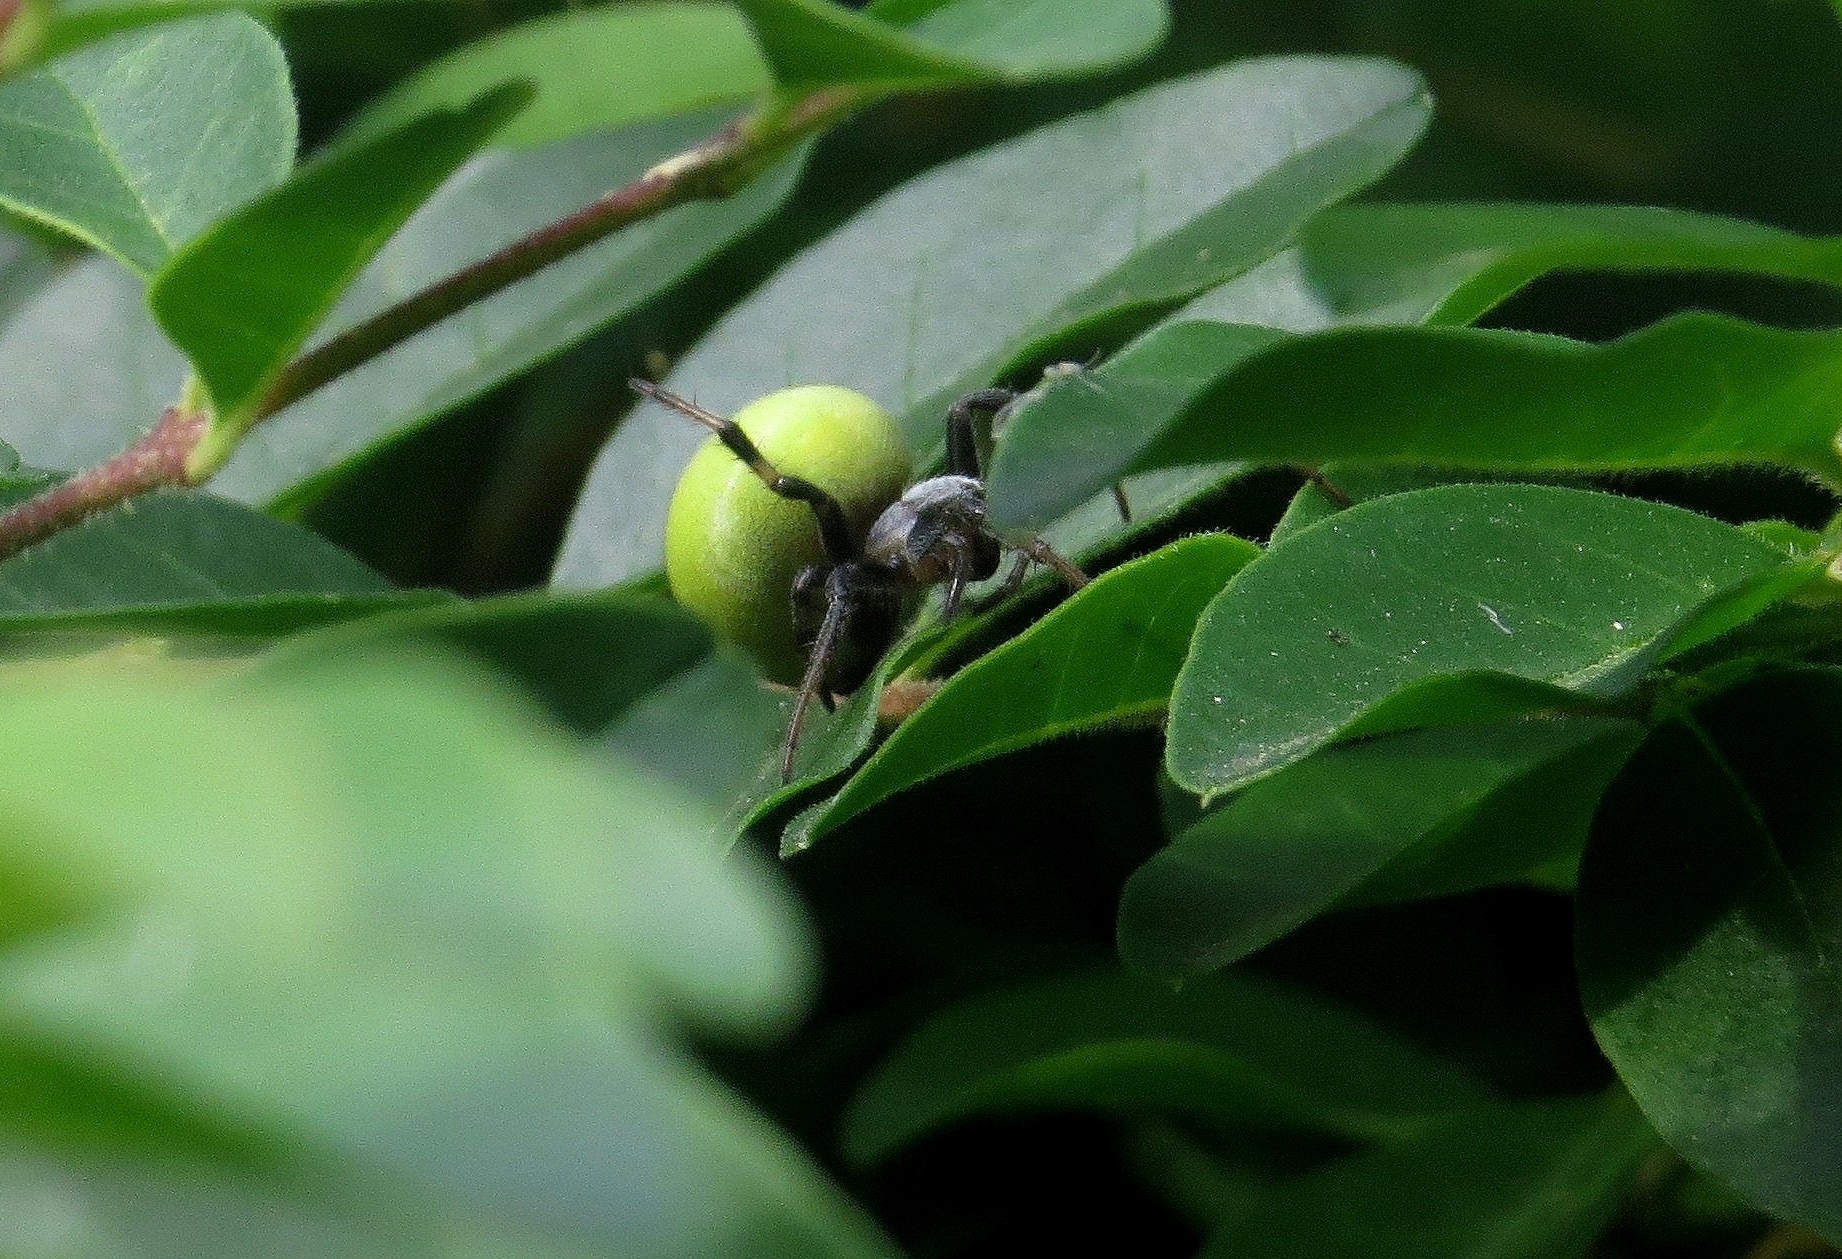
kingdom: Animalia
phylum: Arthropoda
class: Arachnida
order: Araneae
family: Araneidae
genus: Araneus
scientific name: Araneus lathyrinus
